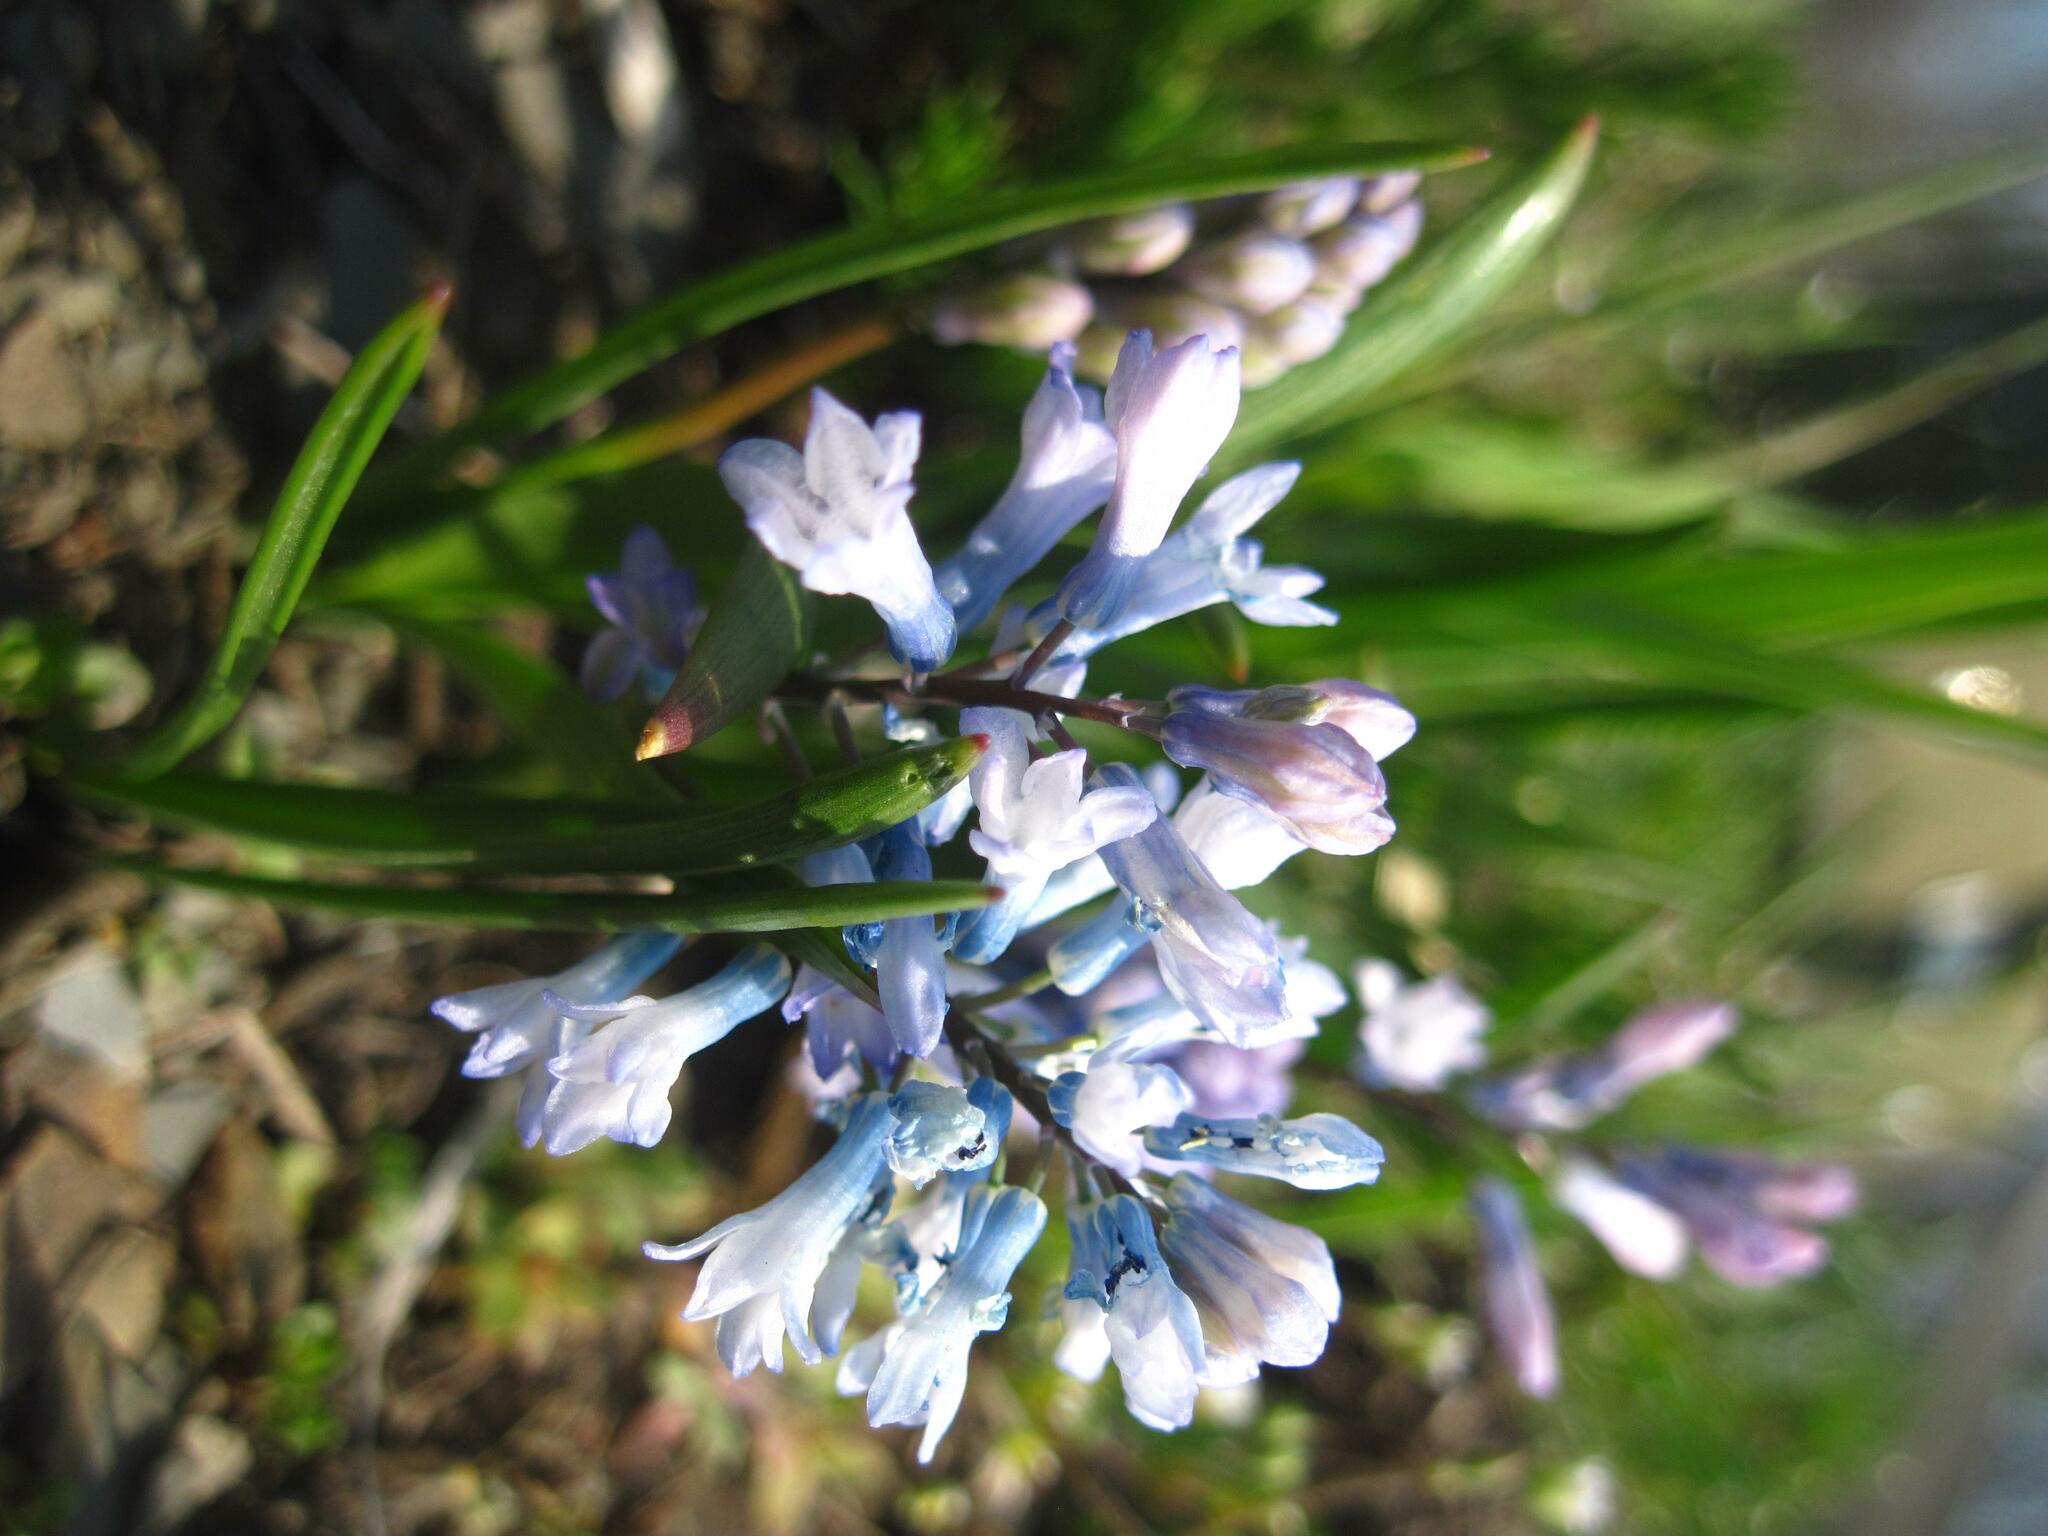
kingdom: Plantae
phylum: Tracheophyta
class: Liliopsida
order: Asparagales
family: Asparagaceae
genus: Hyacinthella
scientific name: Hyacinthella pallasiana
